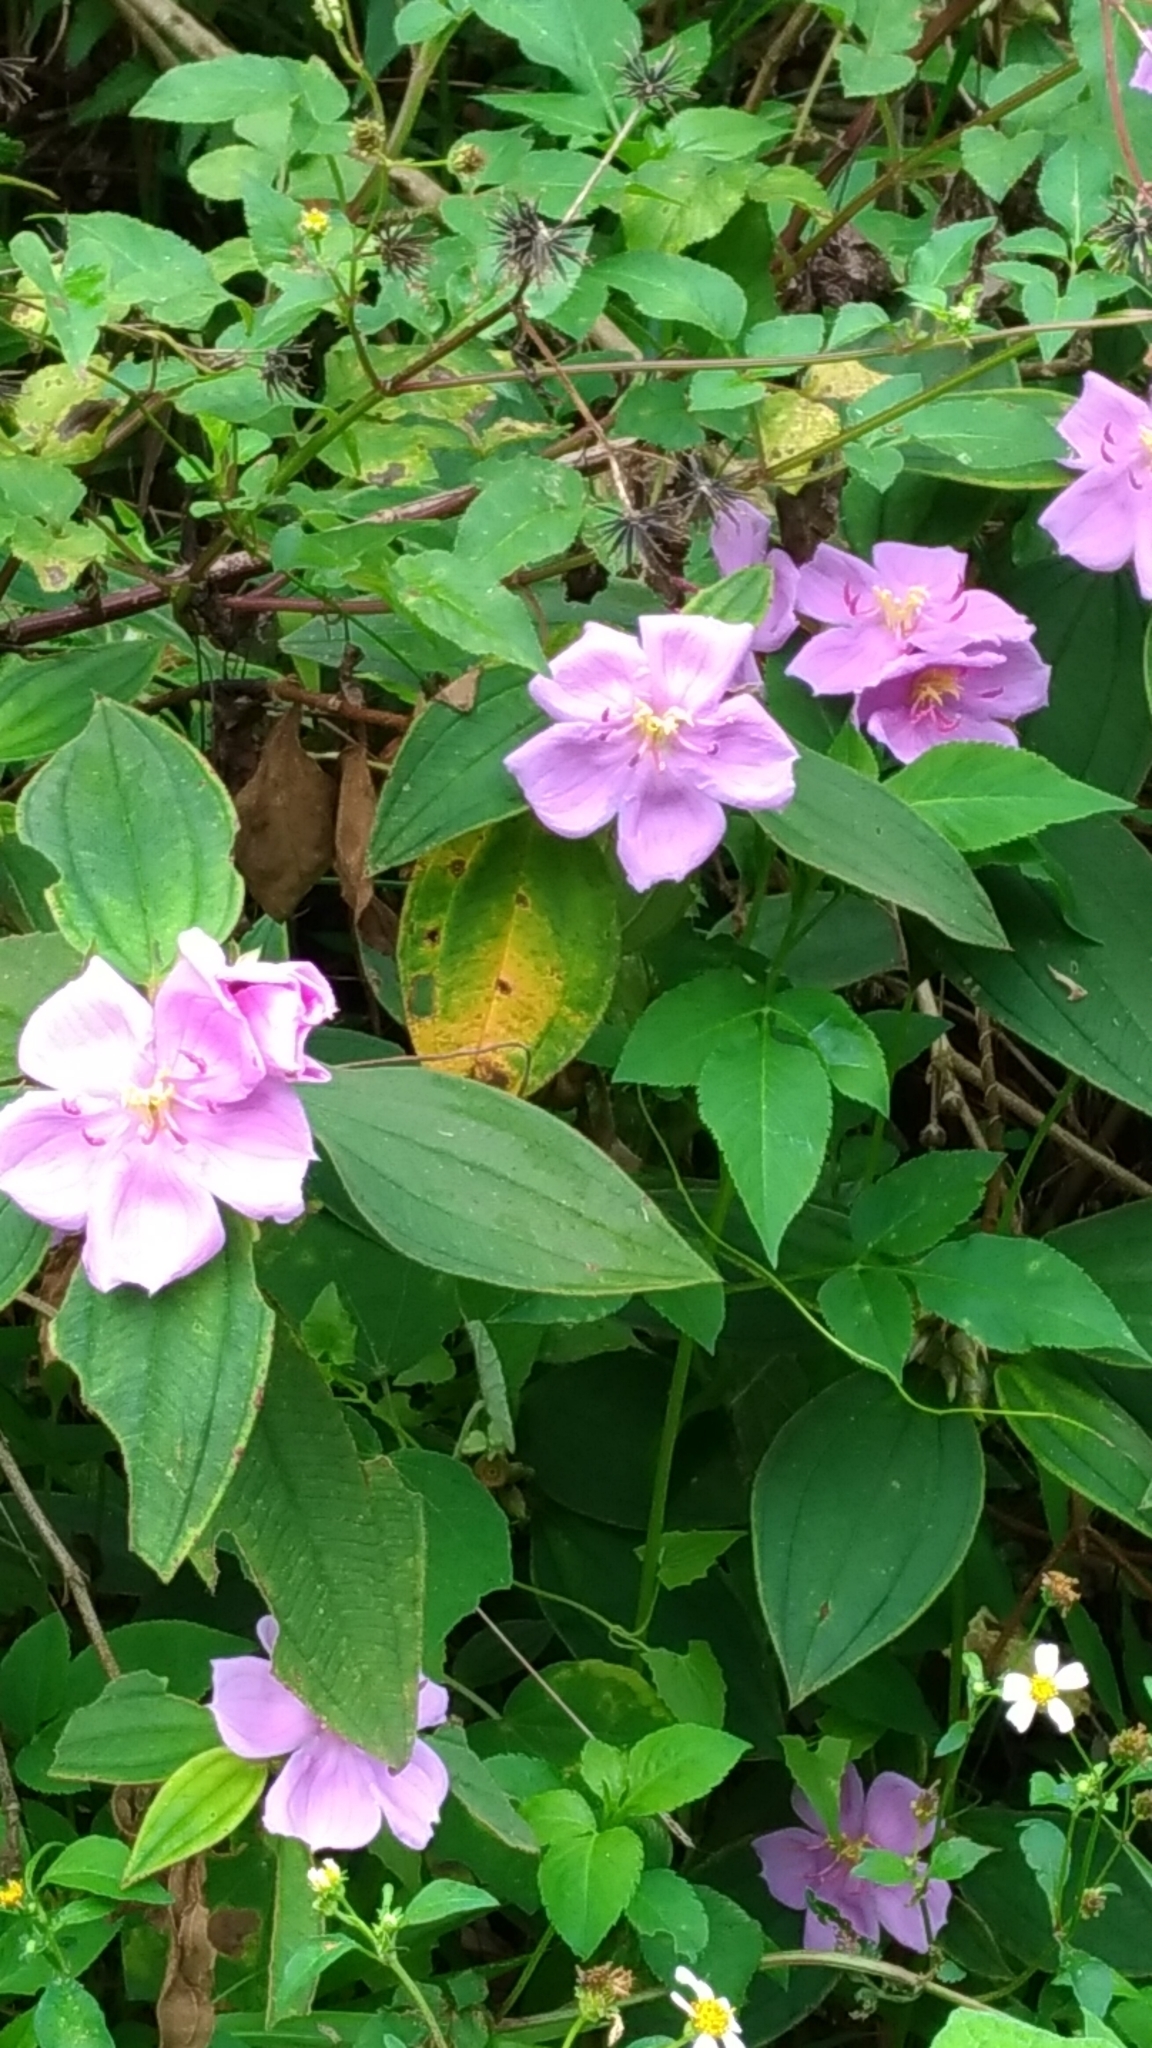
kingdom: Plantae
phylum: Tracheophyta
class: Magnoliopsida
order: Myrtales
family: Melastomataceae
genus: Melastoma
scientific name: Melastoma malabathricum
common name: Indian-rhododendron
